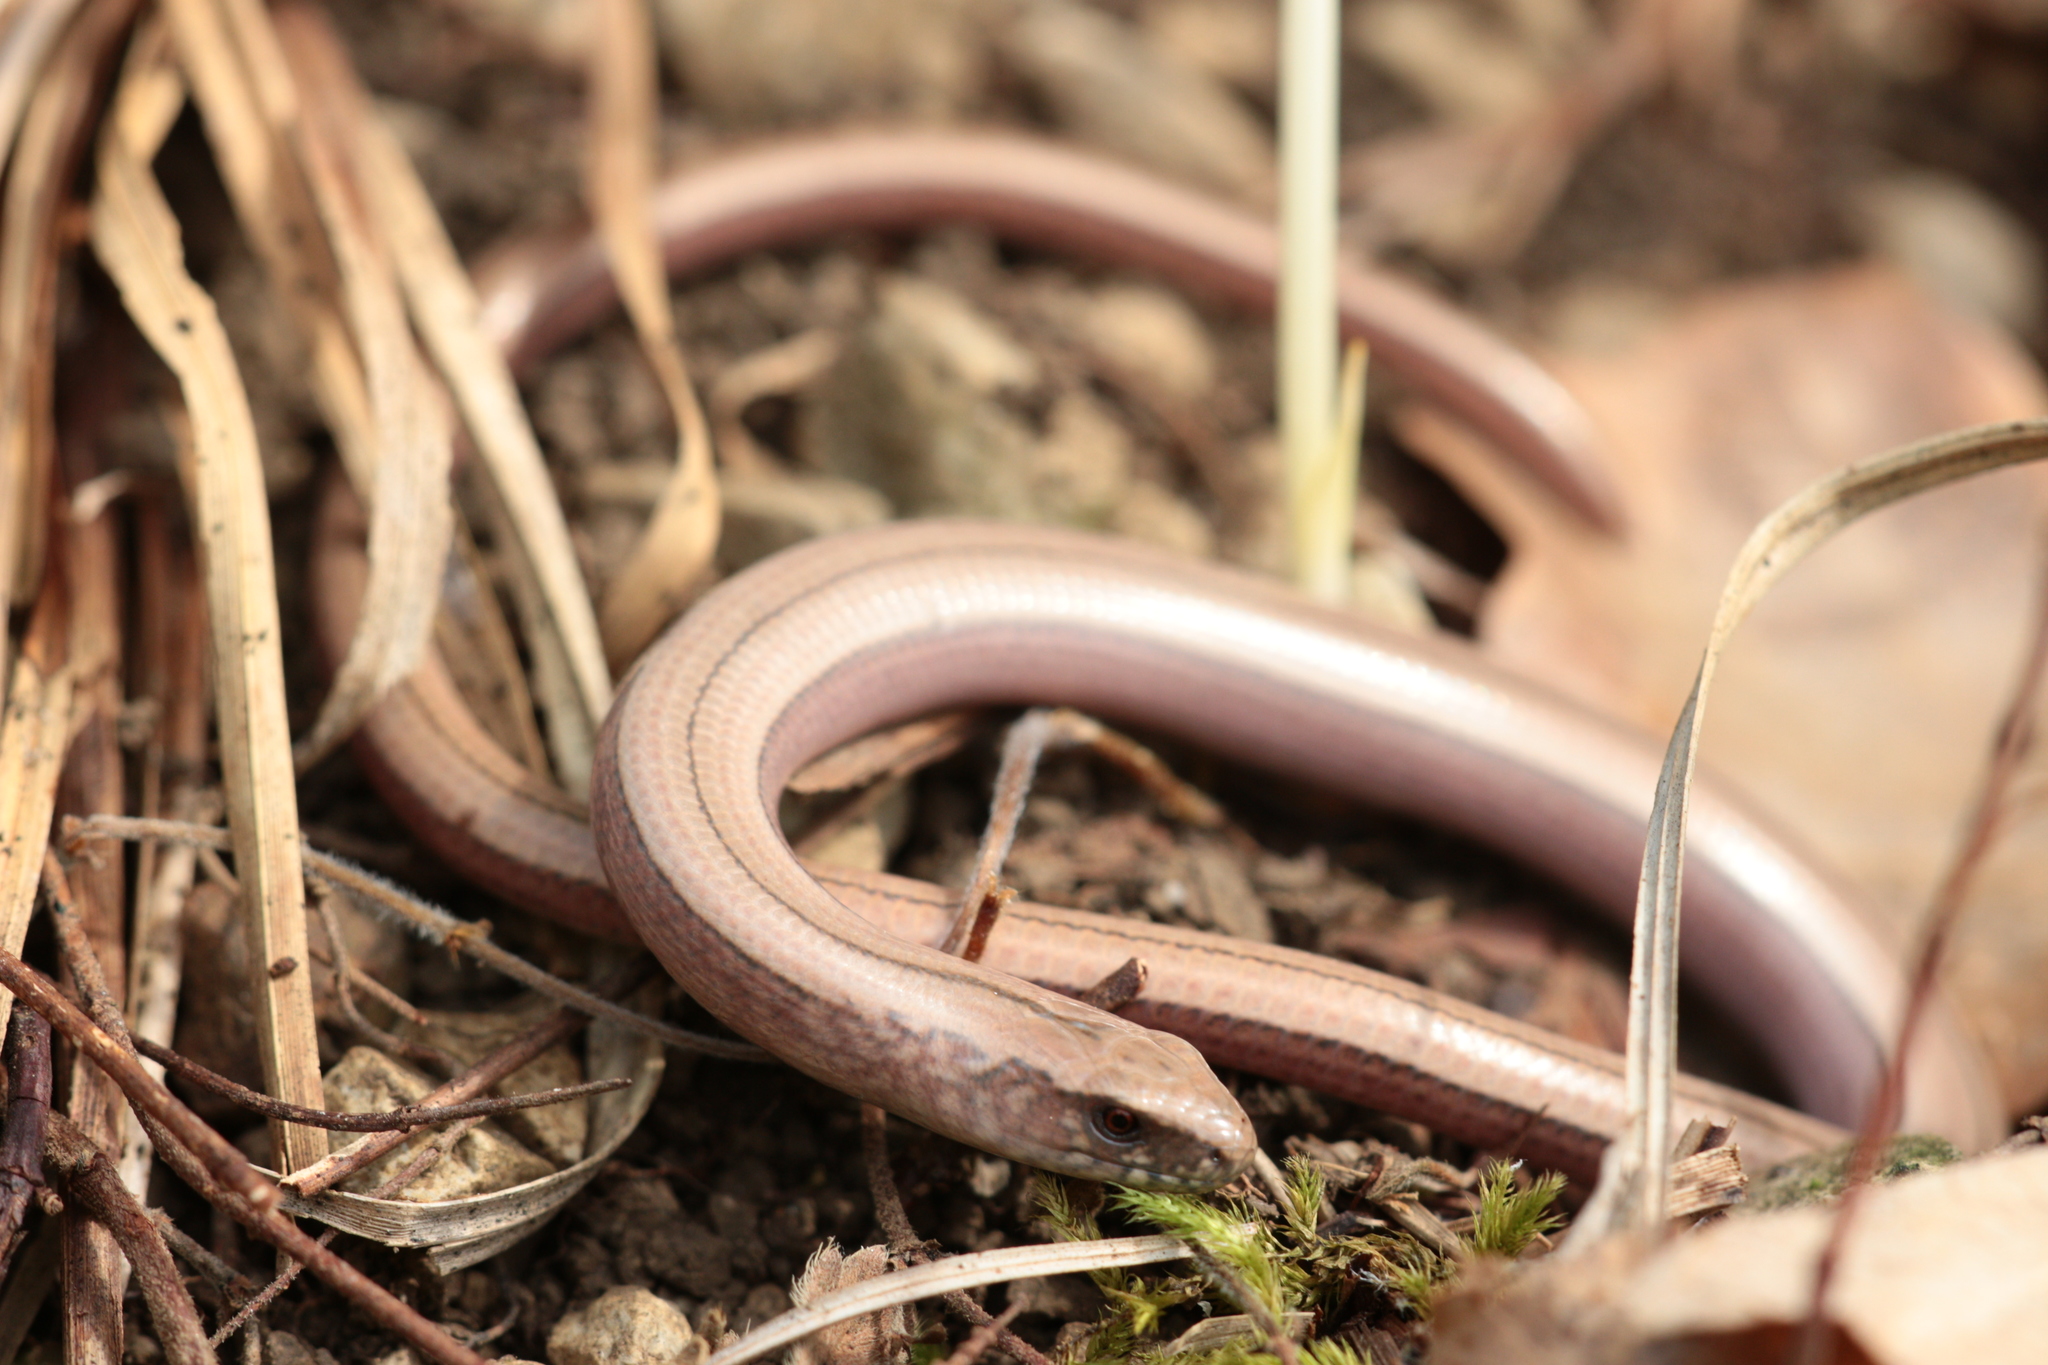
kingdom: Animalia
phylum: Chordata
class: Squamata
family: Anguidae
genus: Anguis
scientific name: Anguis fragilis
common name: Slow worm
